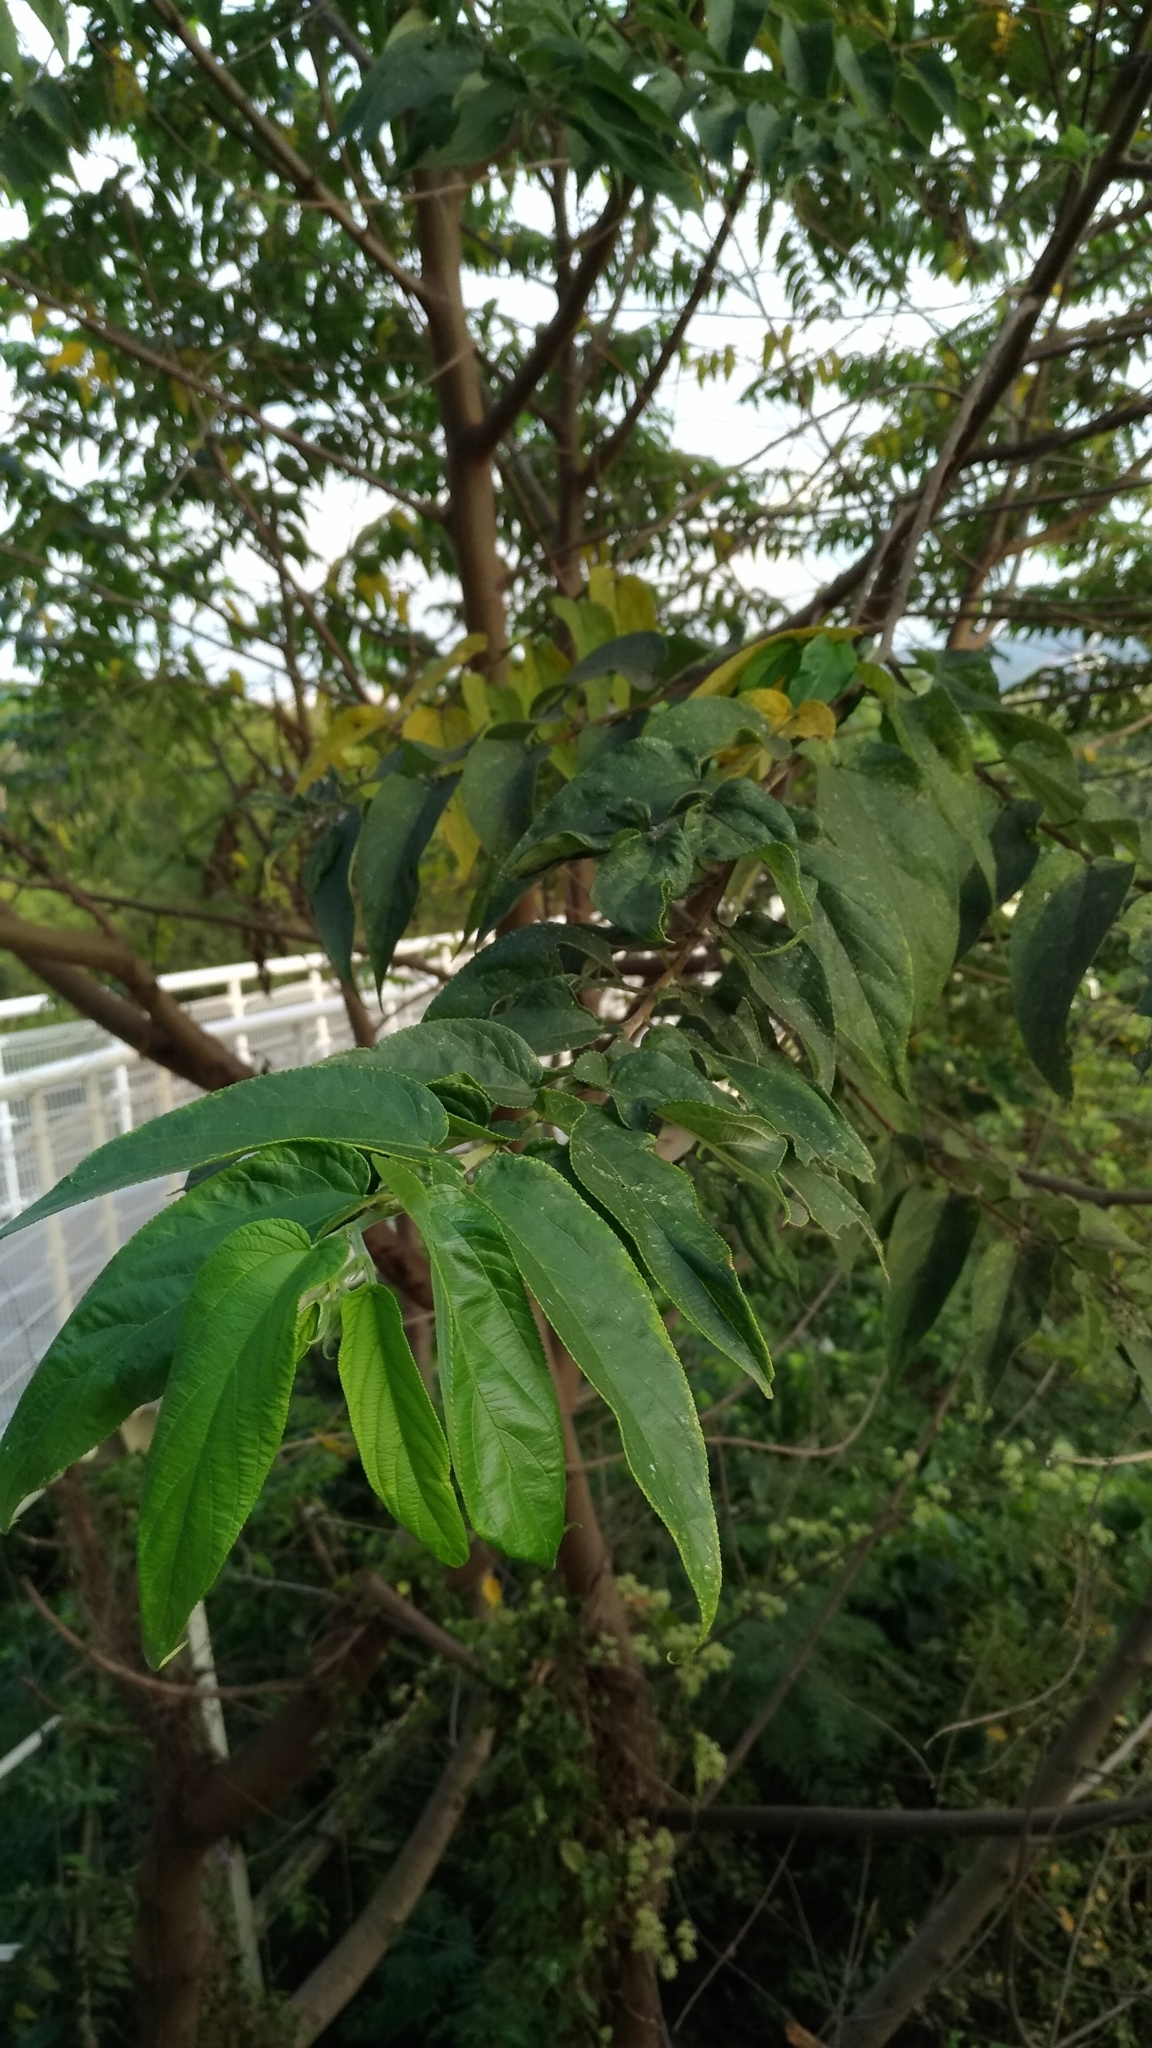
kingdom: Plantae
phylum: Tracheophyta
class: Magnoliopsida
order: Rosales
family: Cannabaceae
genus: Trema
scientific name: Trema orientale
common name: Indian charcoal tree
